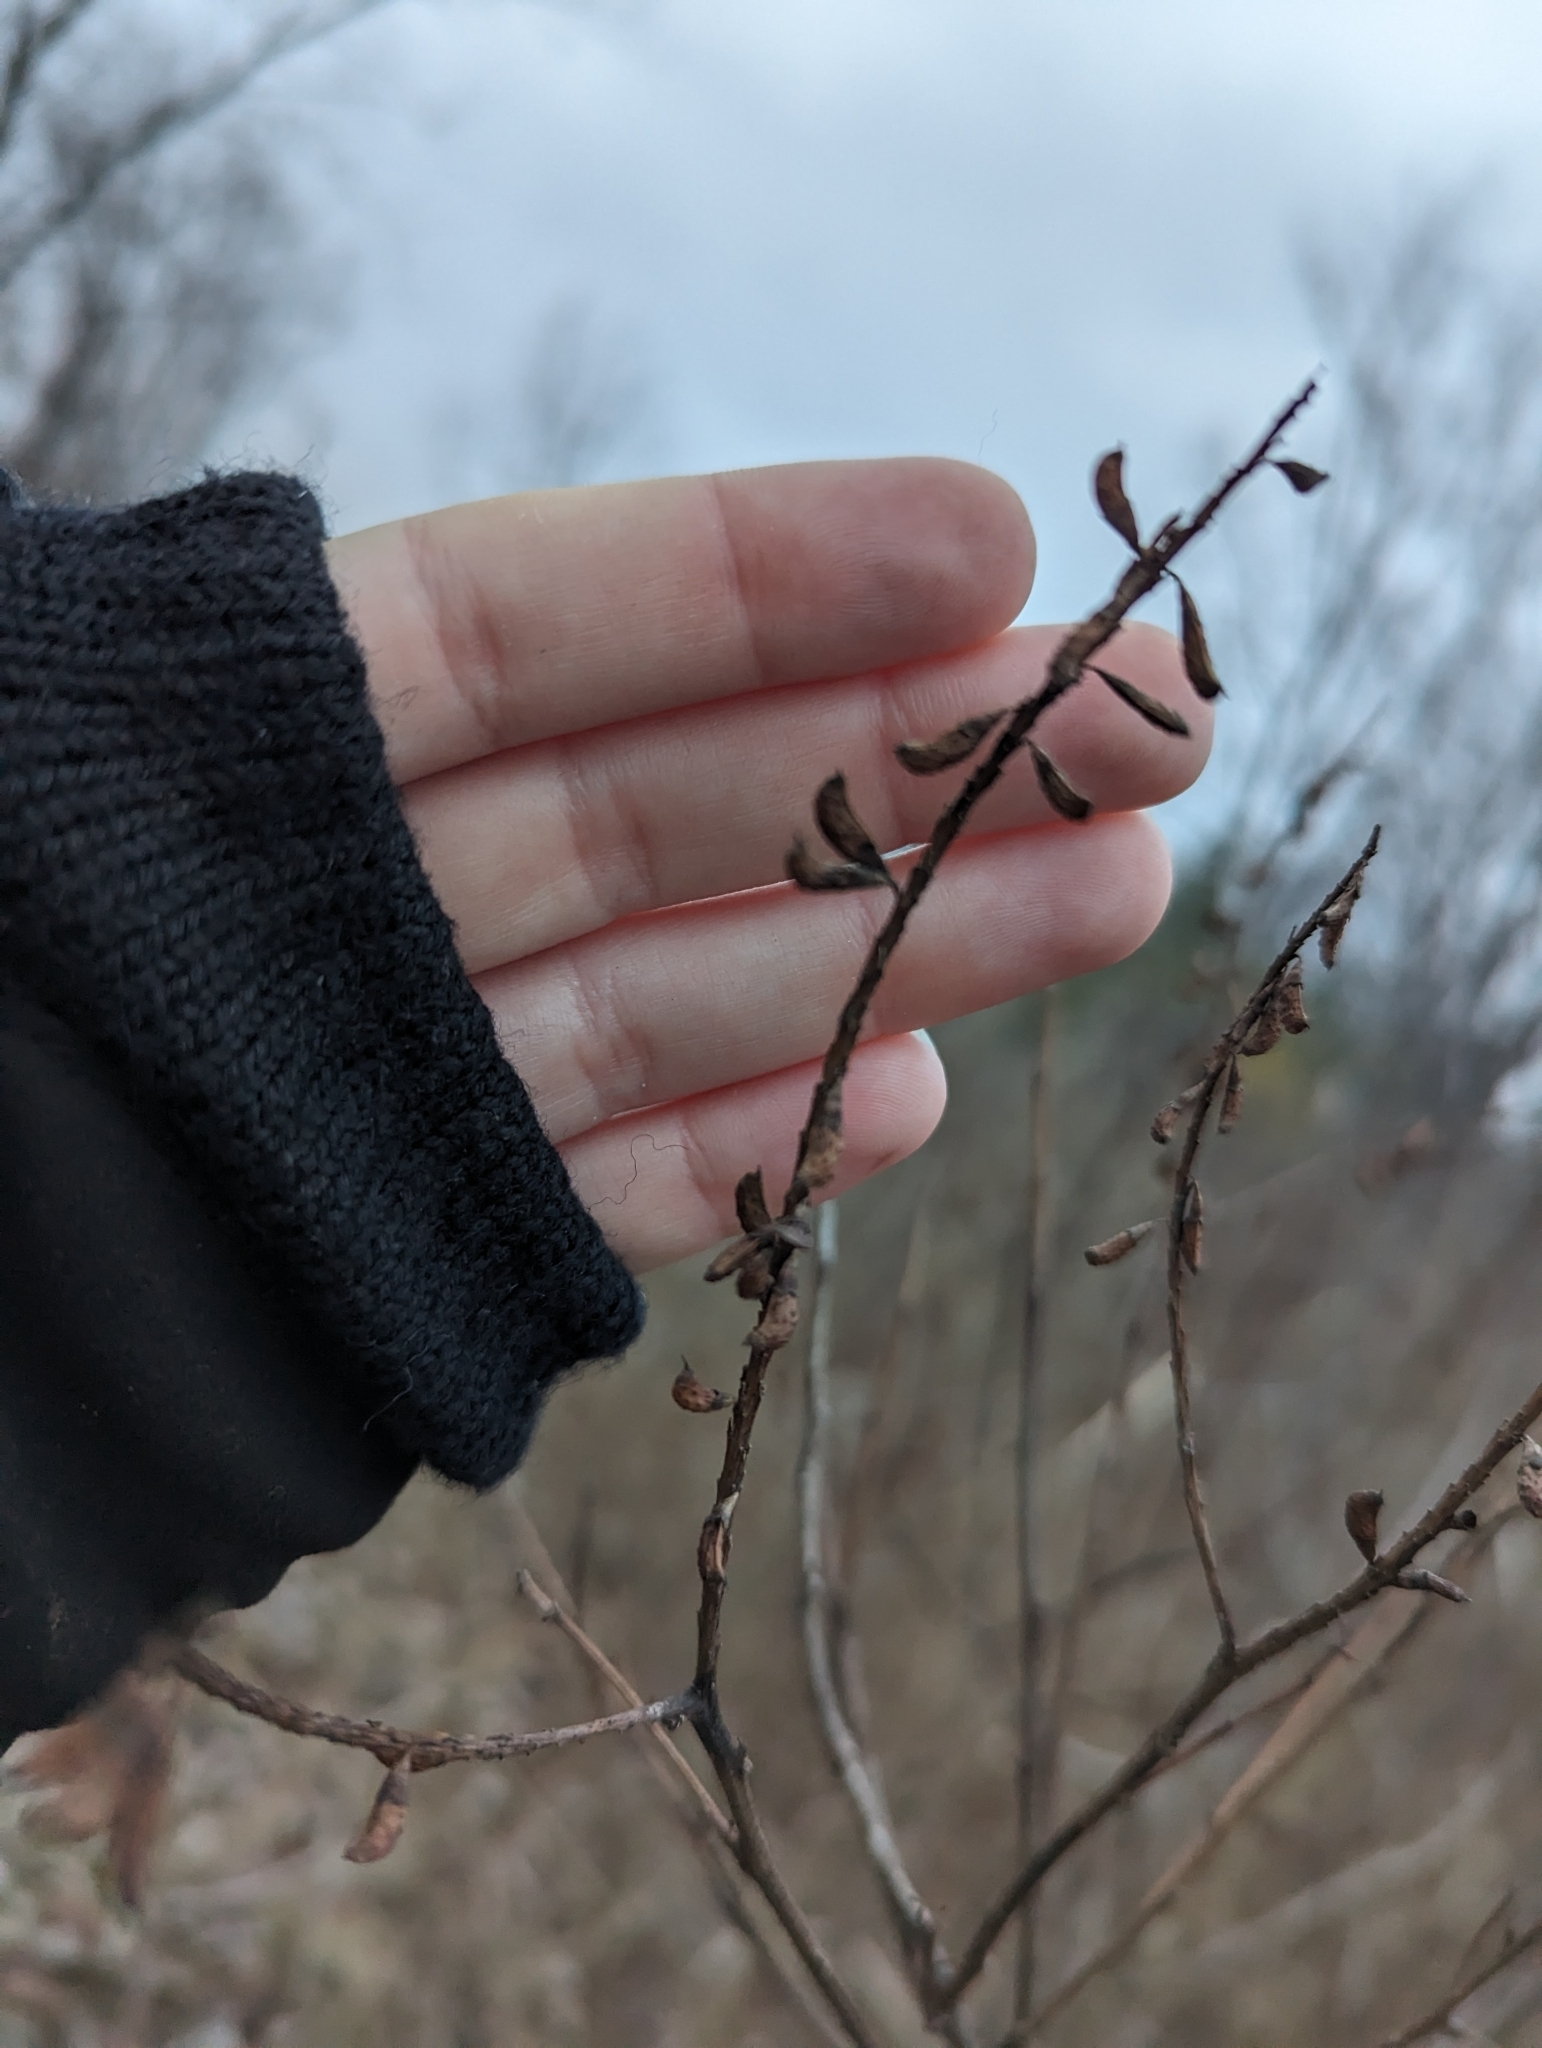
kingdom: Plantae
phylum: Tracheophyta
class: Magnoliopsida
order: Fabales
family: Fabaceae
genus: Amorpha
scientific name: Amorpha fruticosa
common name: False indigo
